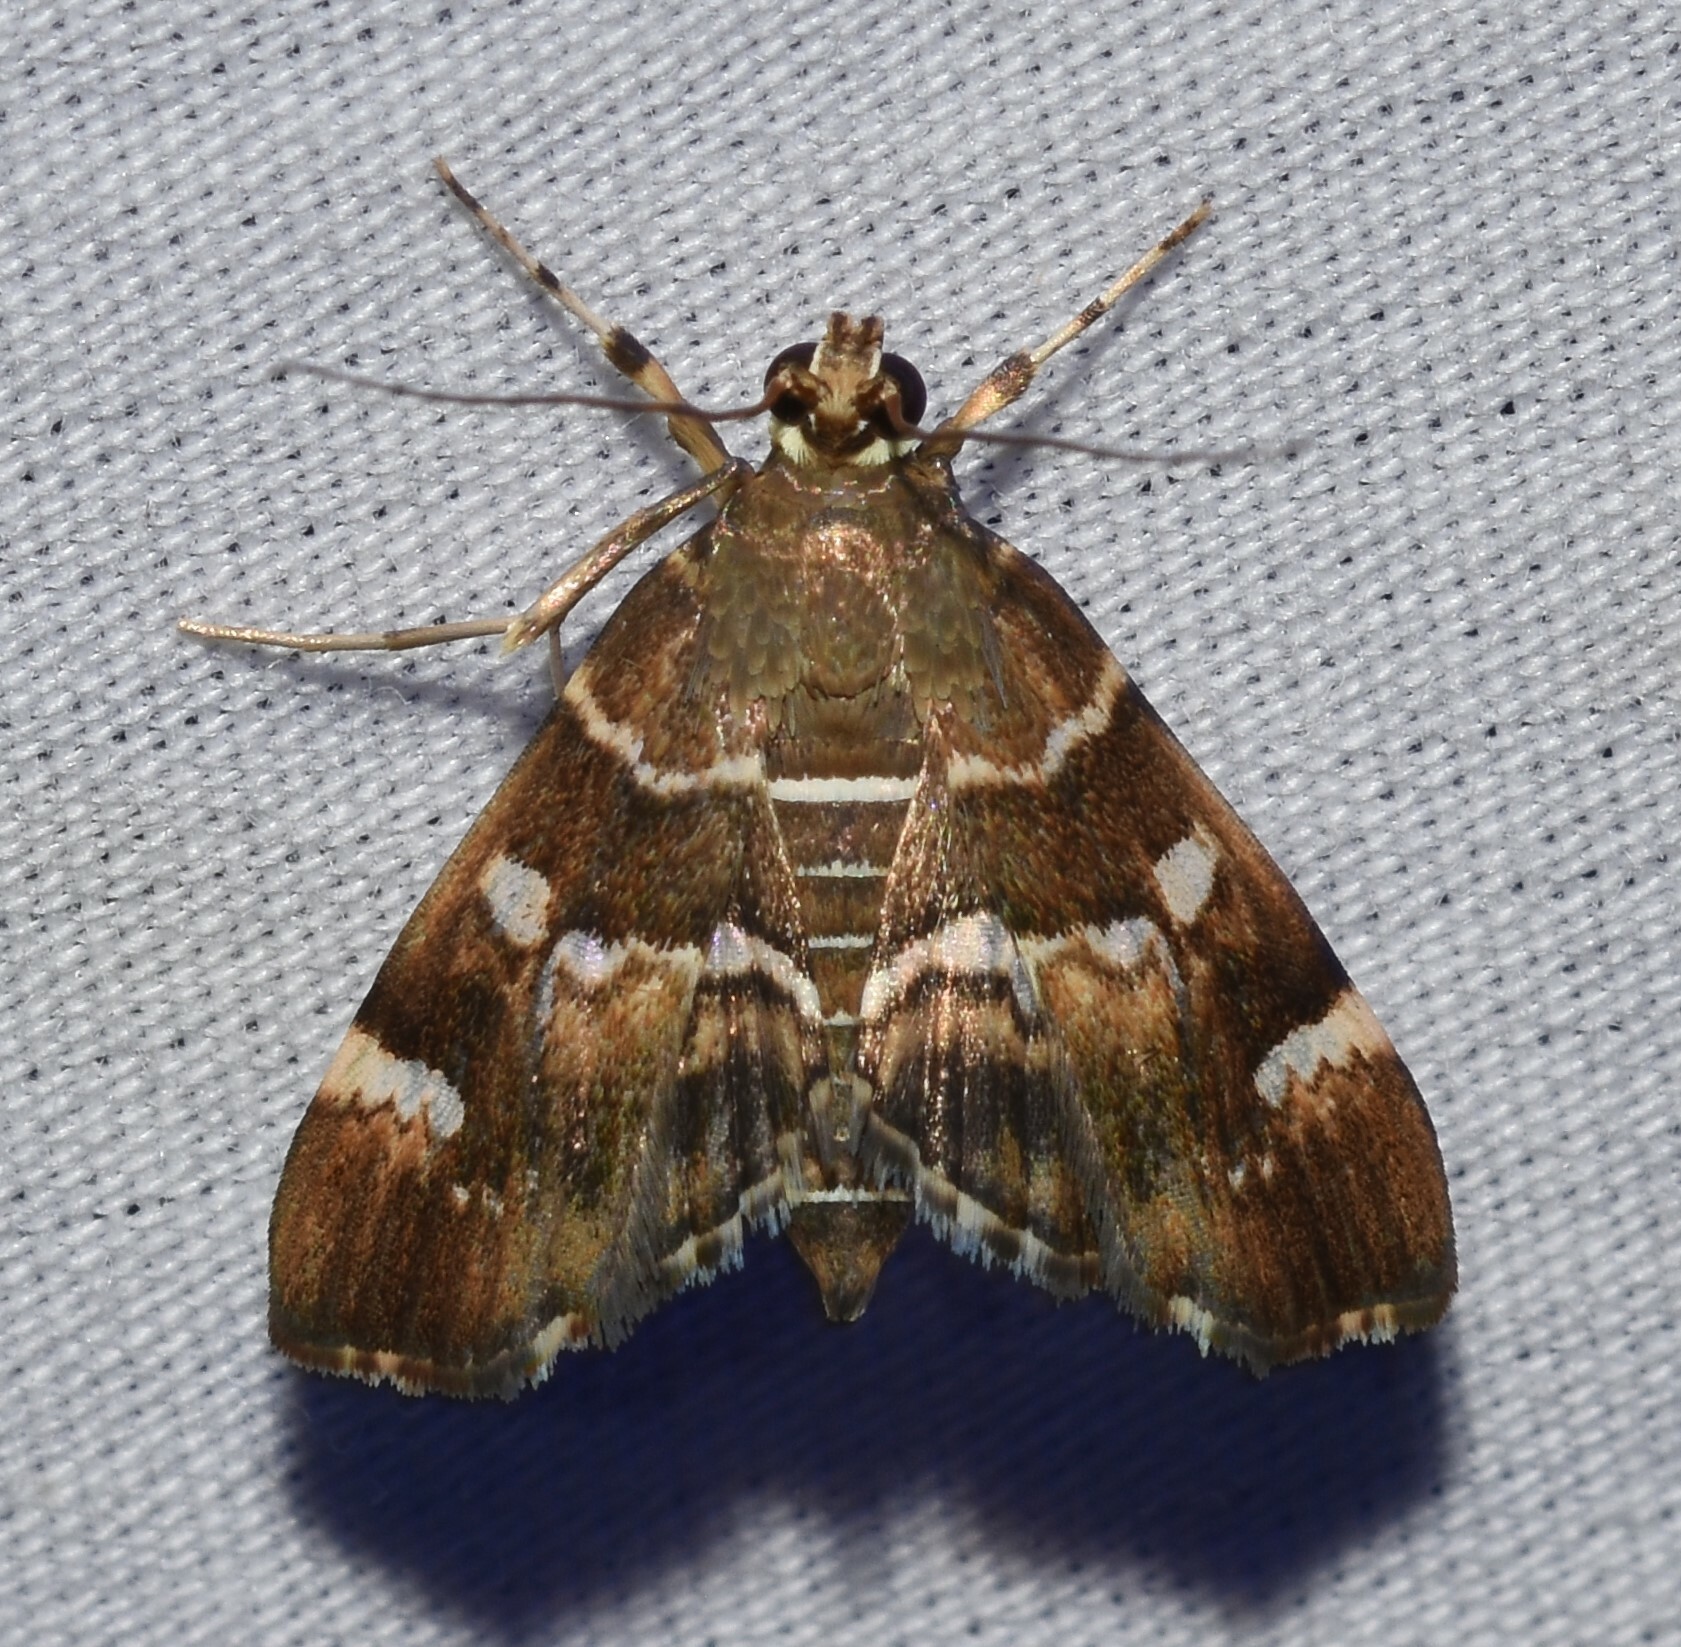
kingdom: Animalia
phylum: Arthropoda
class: Insecta
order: Lepidoptera
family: Crambidae
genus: Hymenia
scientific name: Hymenia perspectalis
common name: Spotted beet webworm
